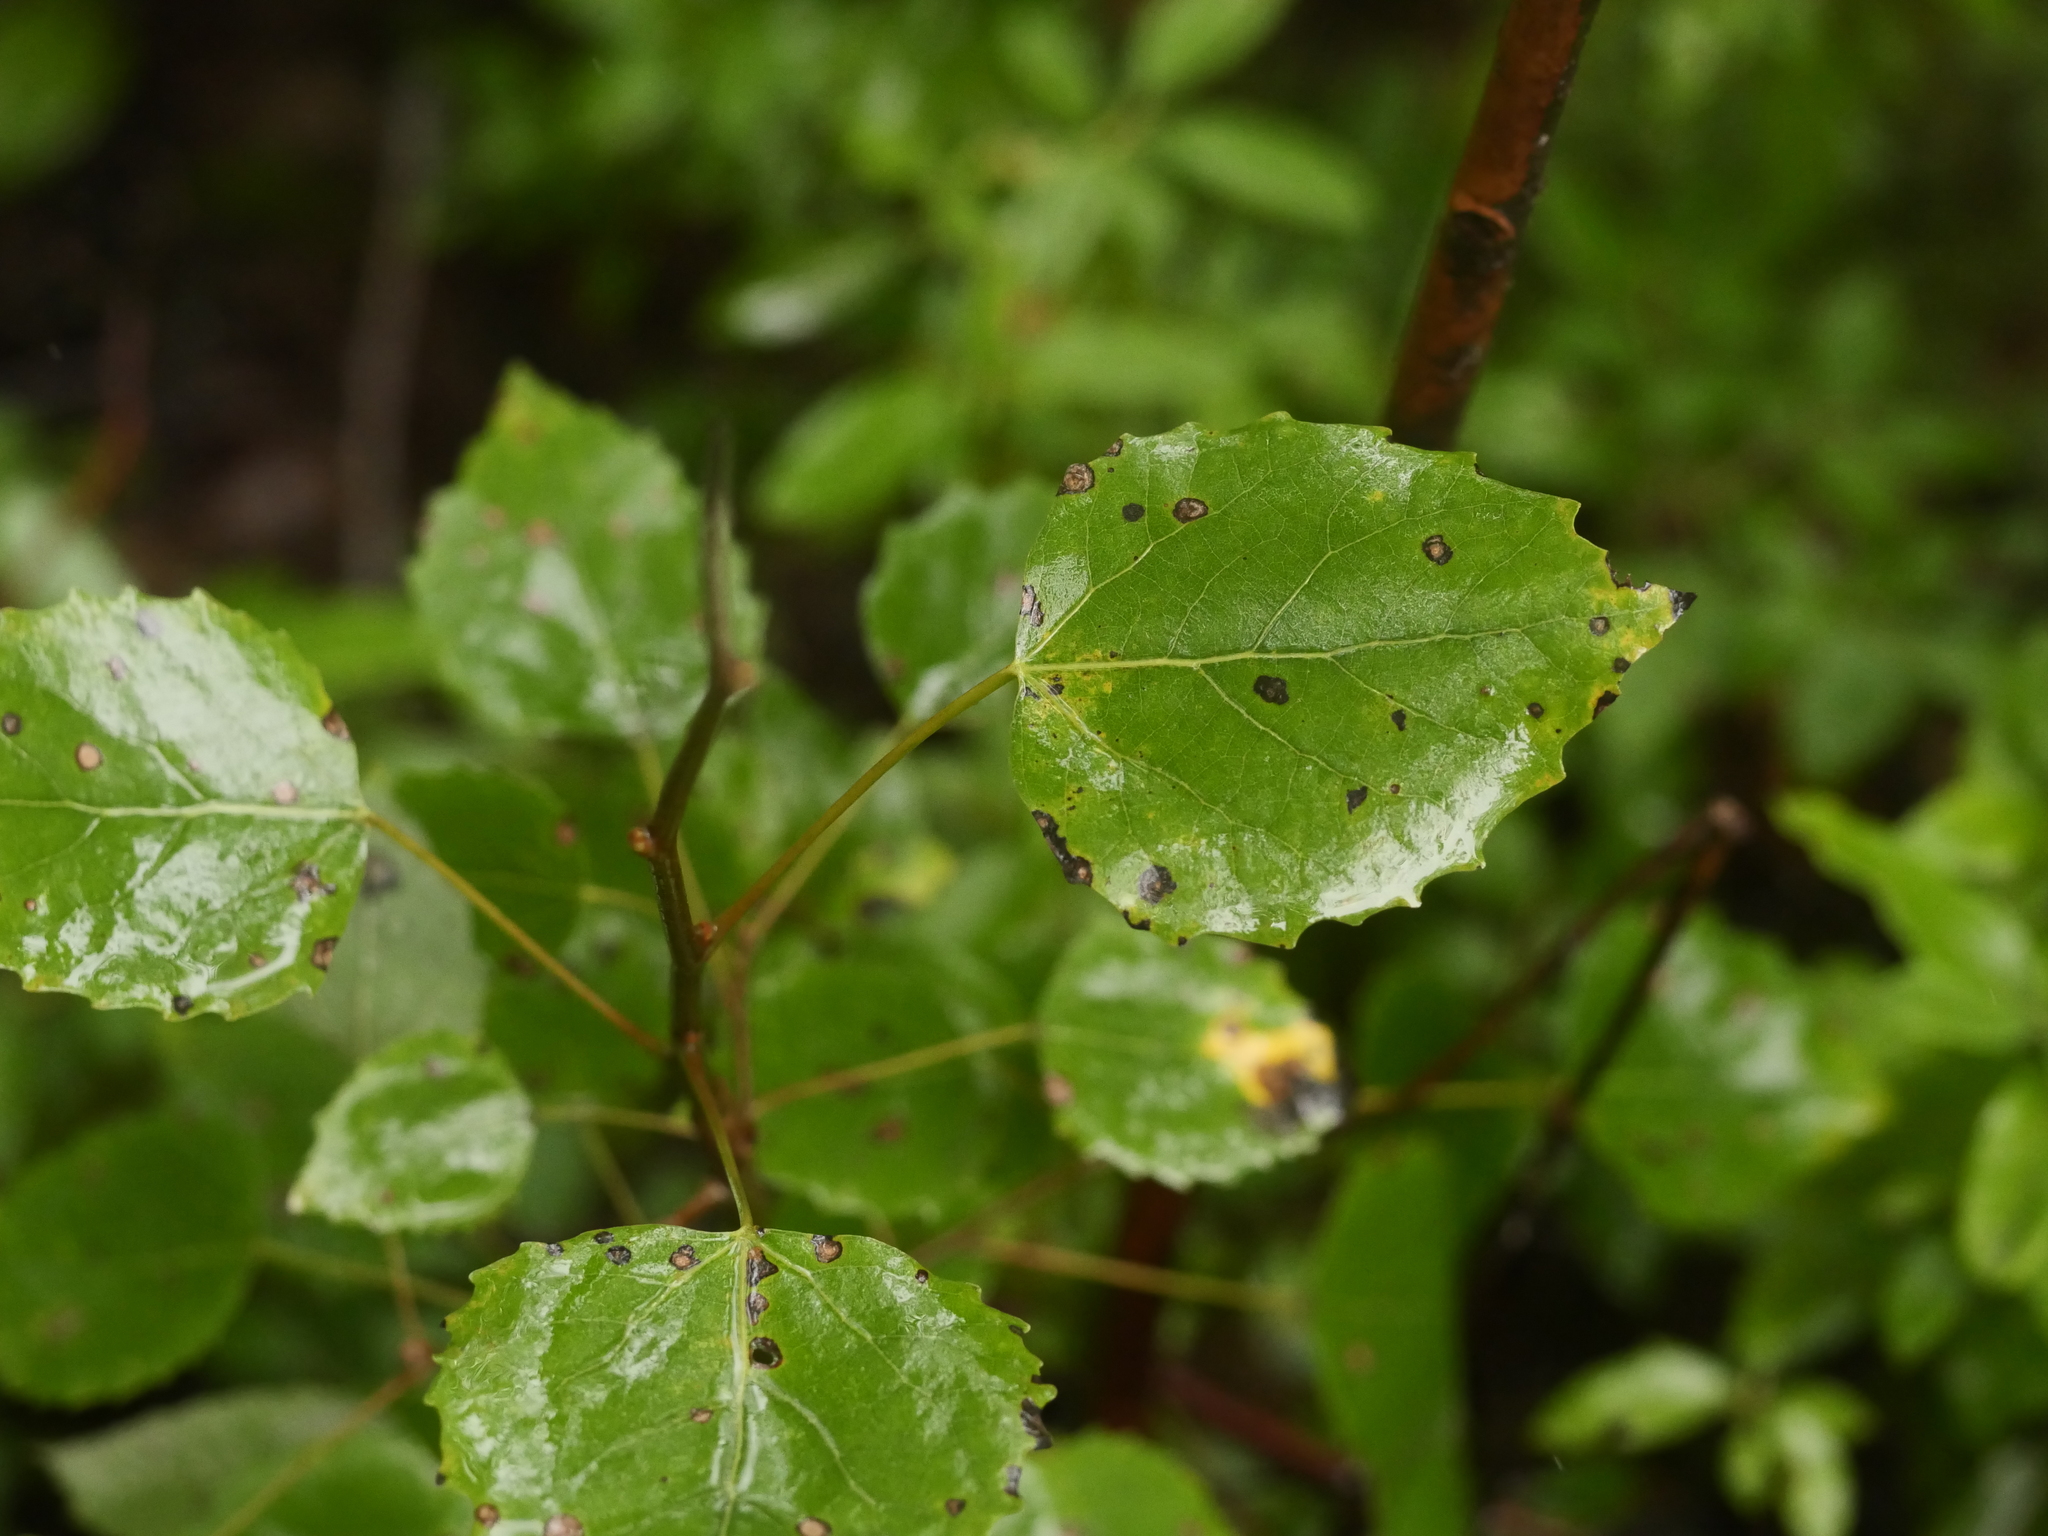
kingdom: Plantae
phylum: Tracheophyta
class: Magnoliopsida
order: Malpighiales
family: Salicaceae
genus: Populus
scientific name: Populus grandidentata
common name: Bigtooth aspen
